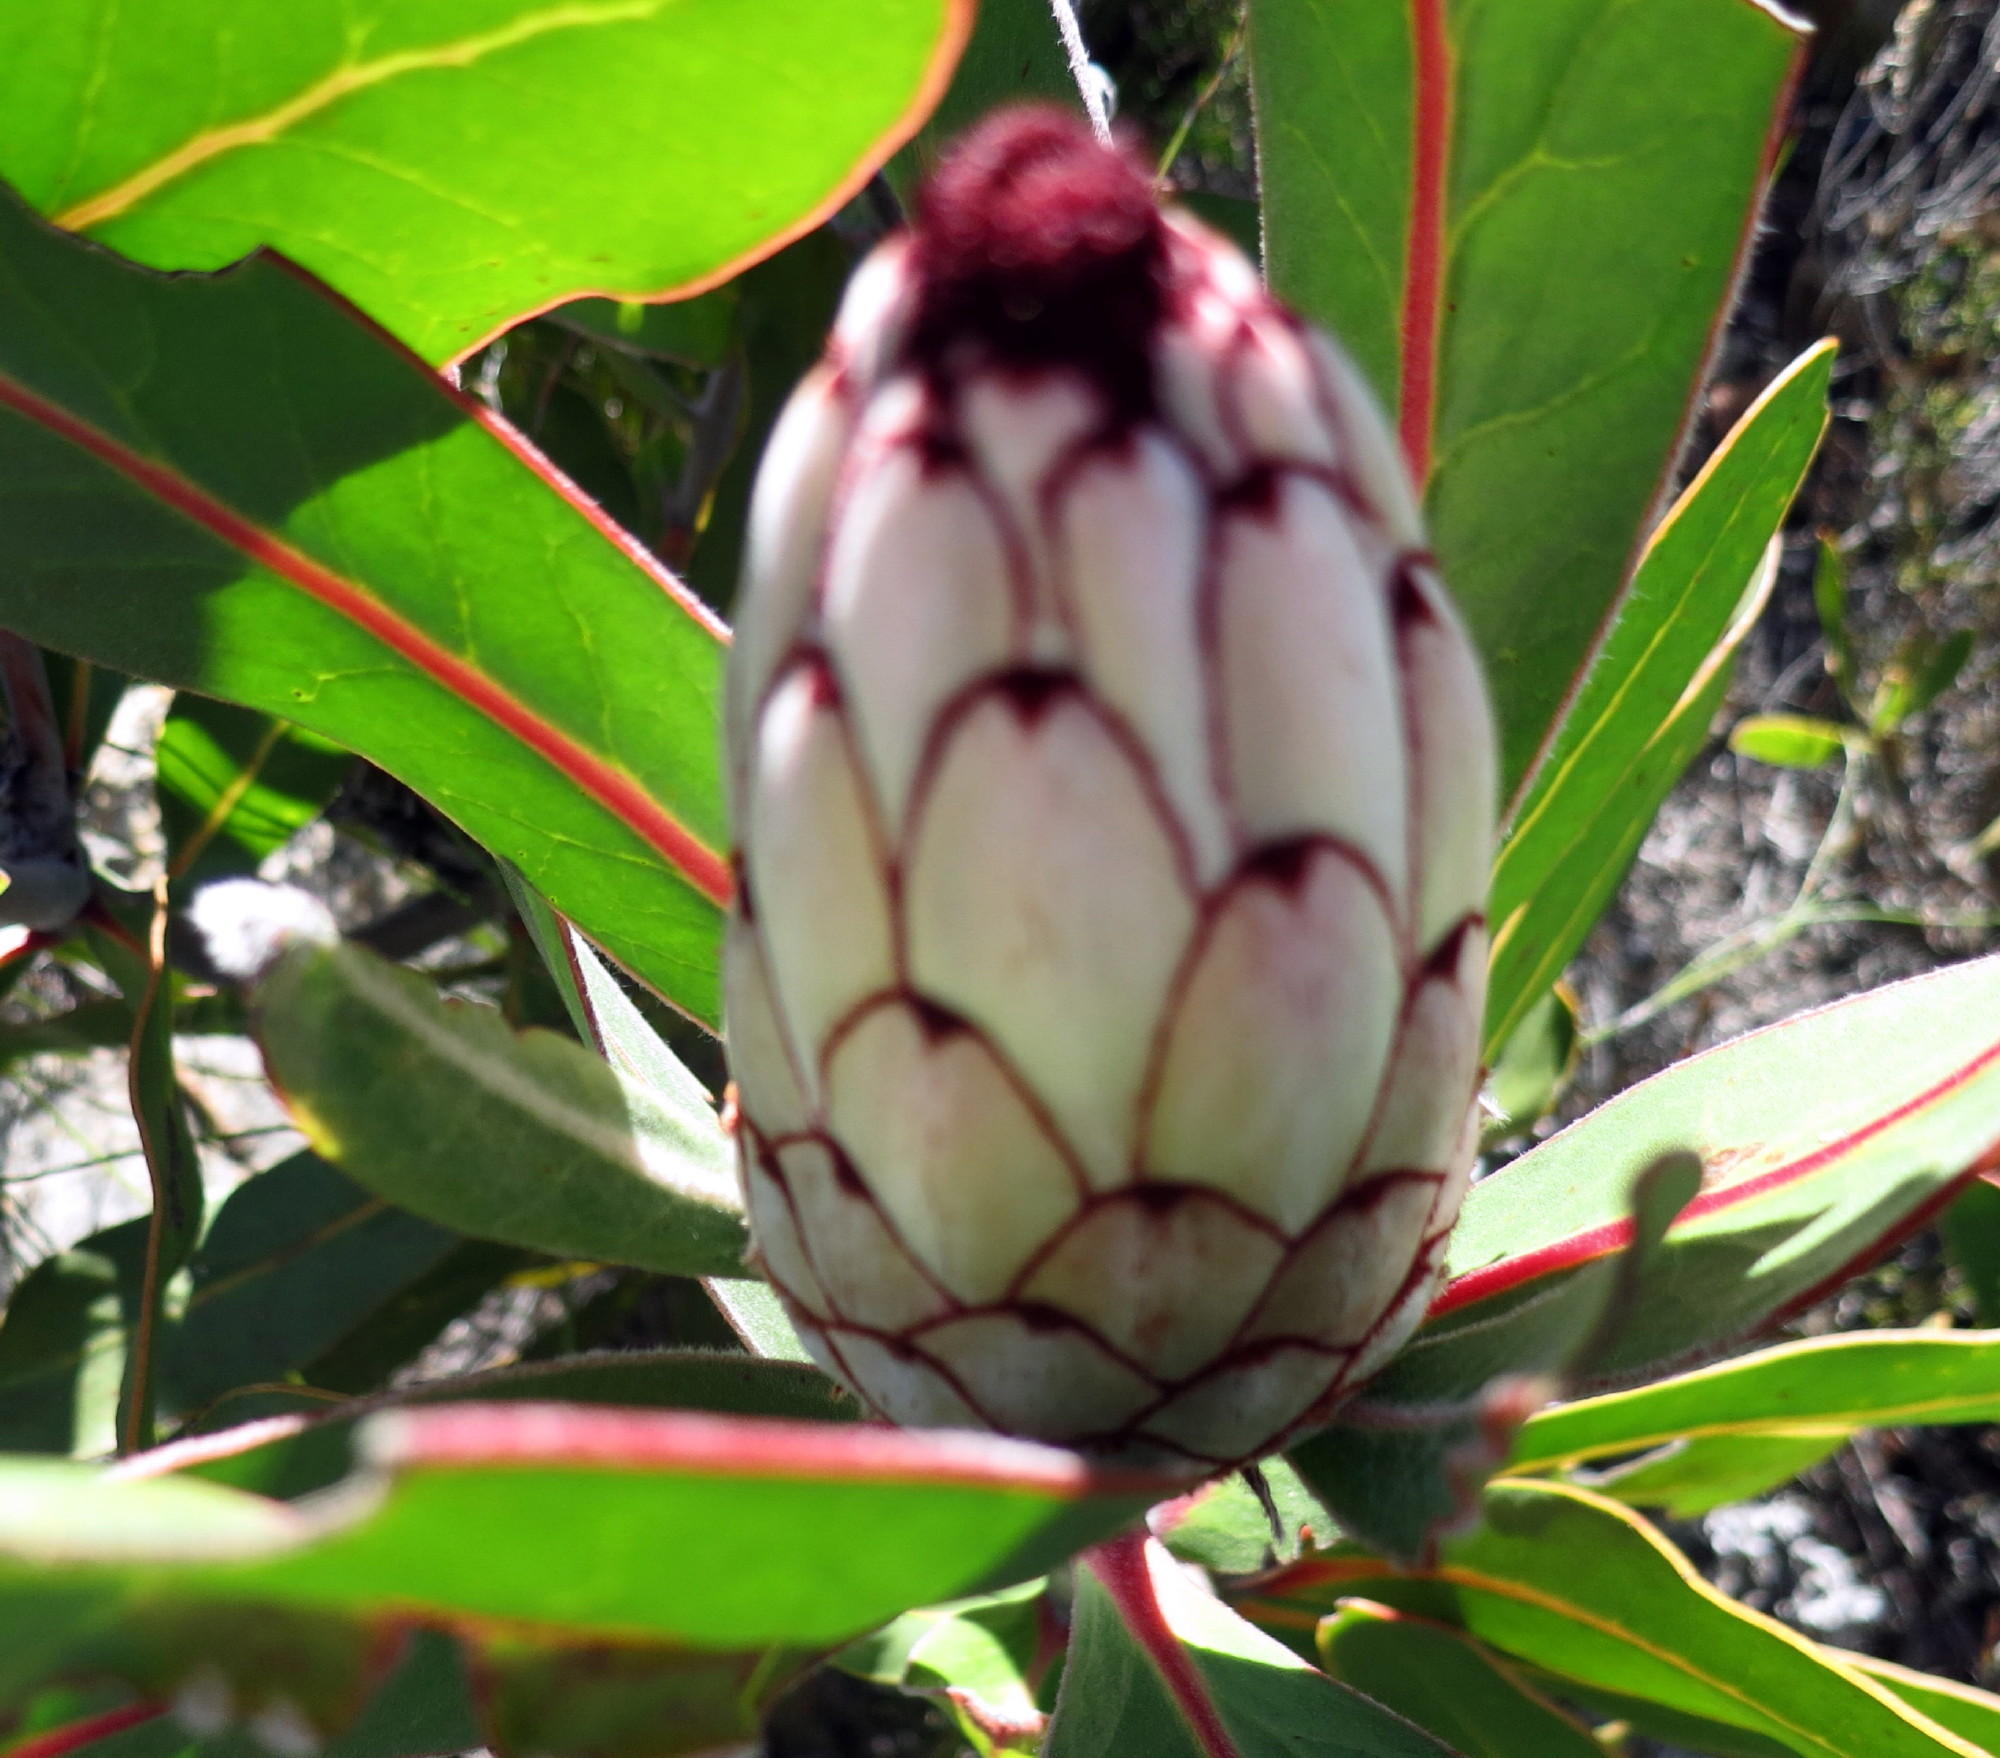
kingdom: Plantae
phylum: Tracheophyta
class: Magnoliopsida
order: Proteales
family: Proteaceae
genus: Protea
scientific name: Protea lorifolia
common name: Strap-leaved protea
